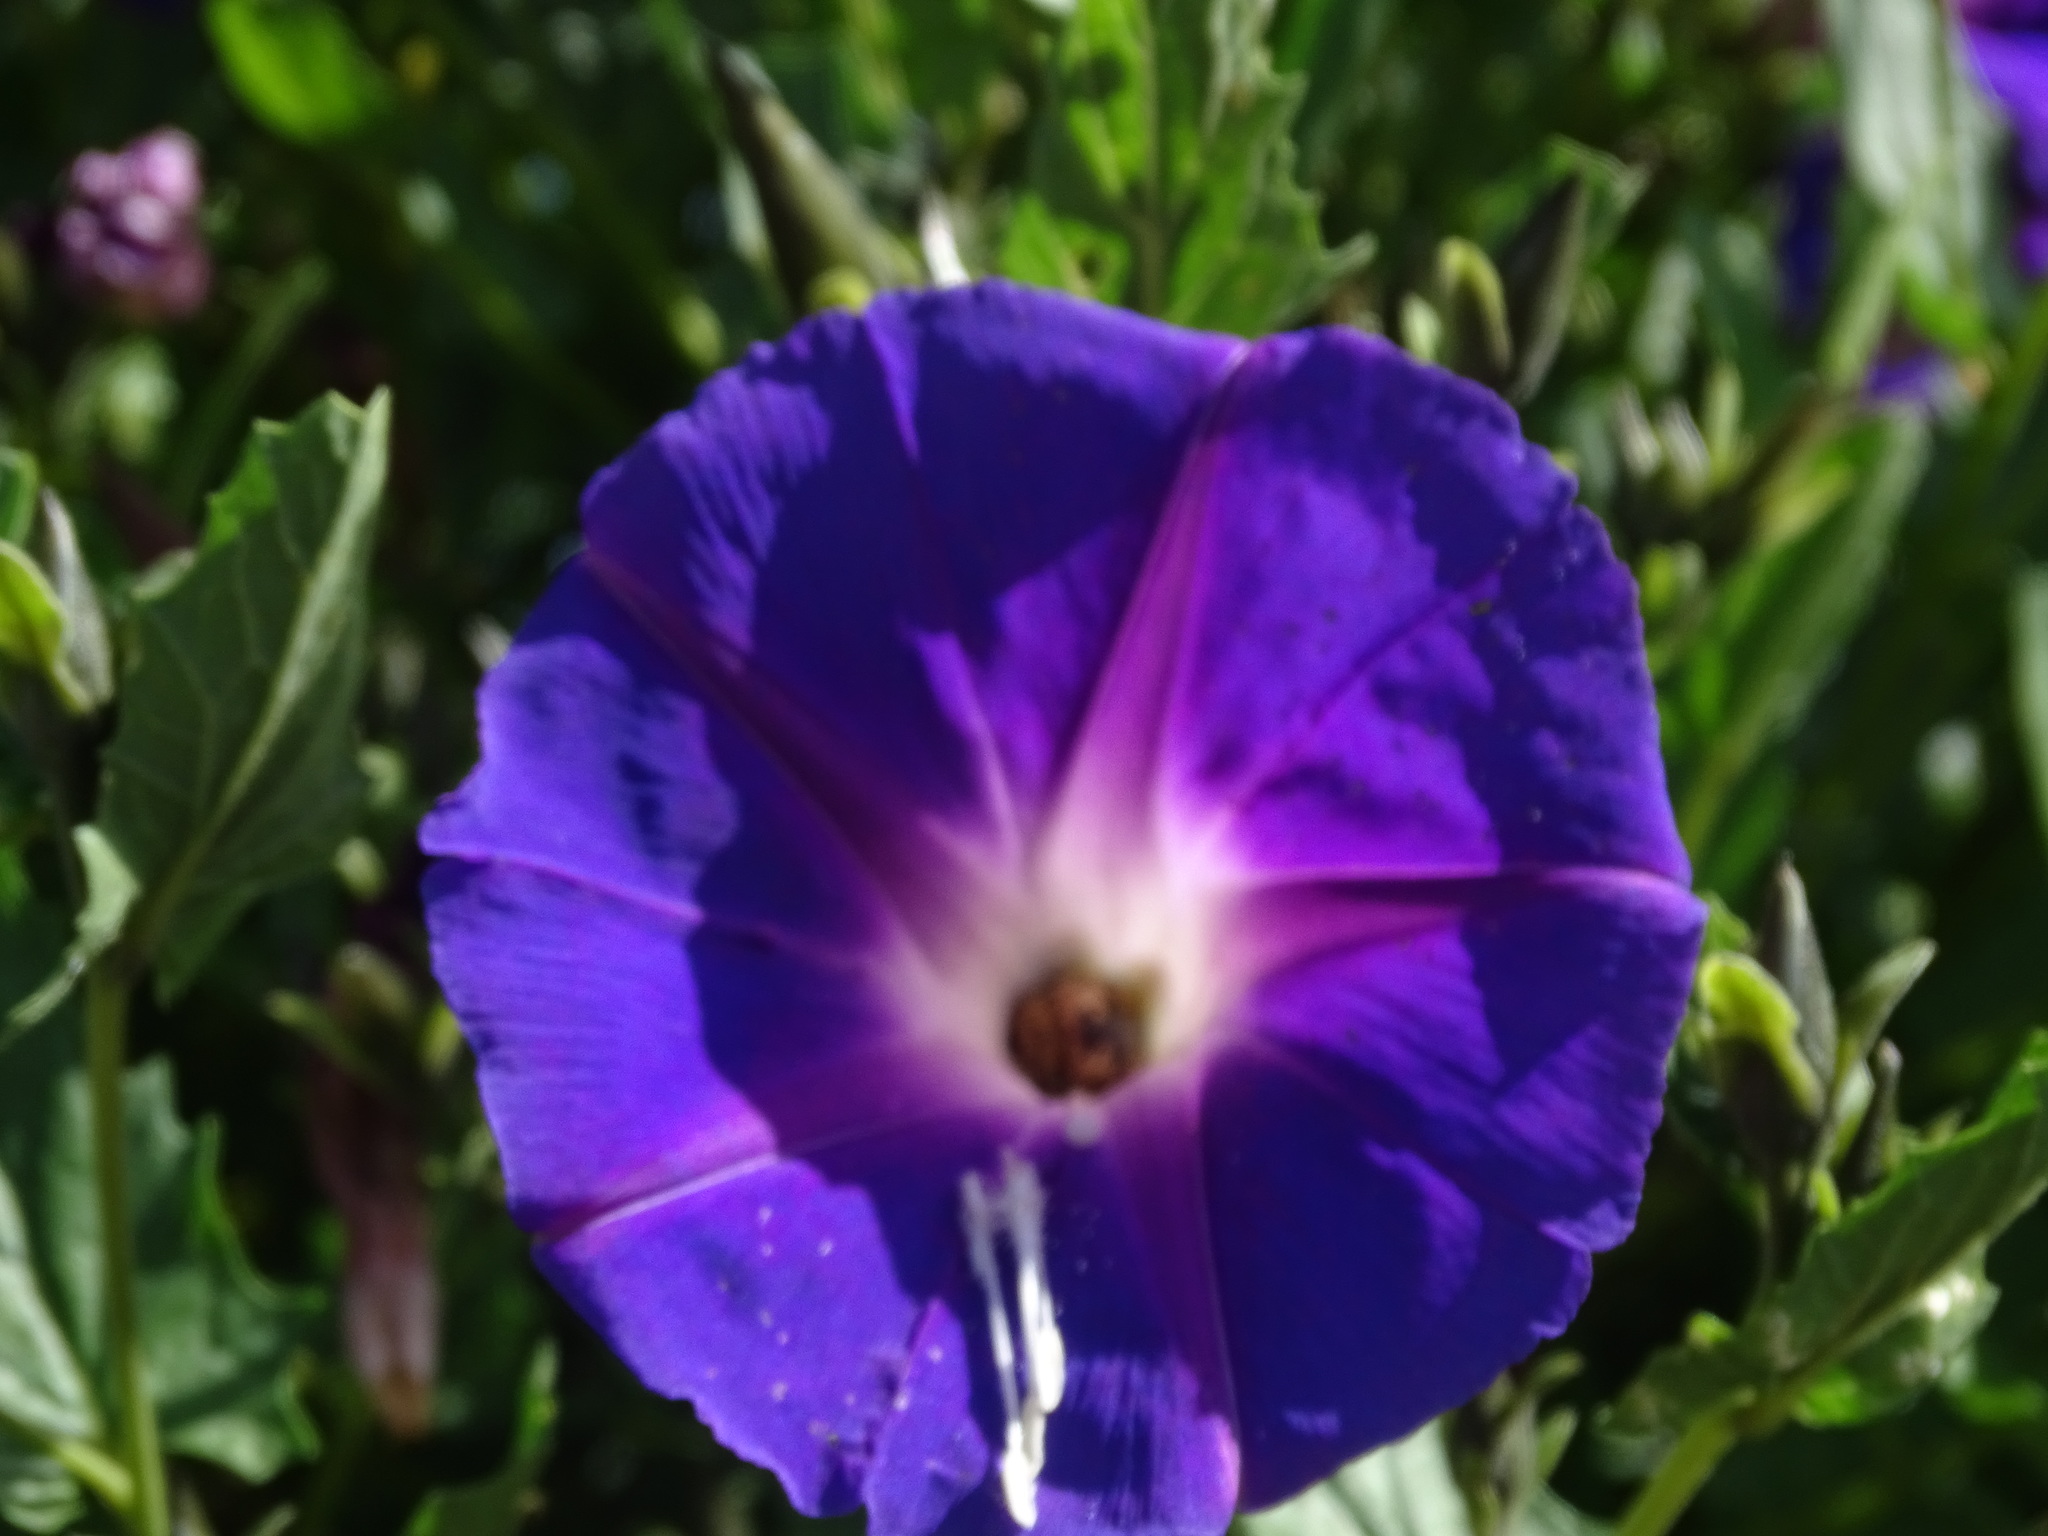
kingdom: Plantae
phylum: Tracheophyta
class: Magnoliopsida
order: Solanales
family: Convolvulaceae
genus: Ipomoea
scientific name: Ipomoea stans
